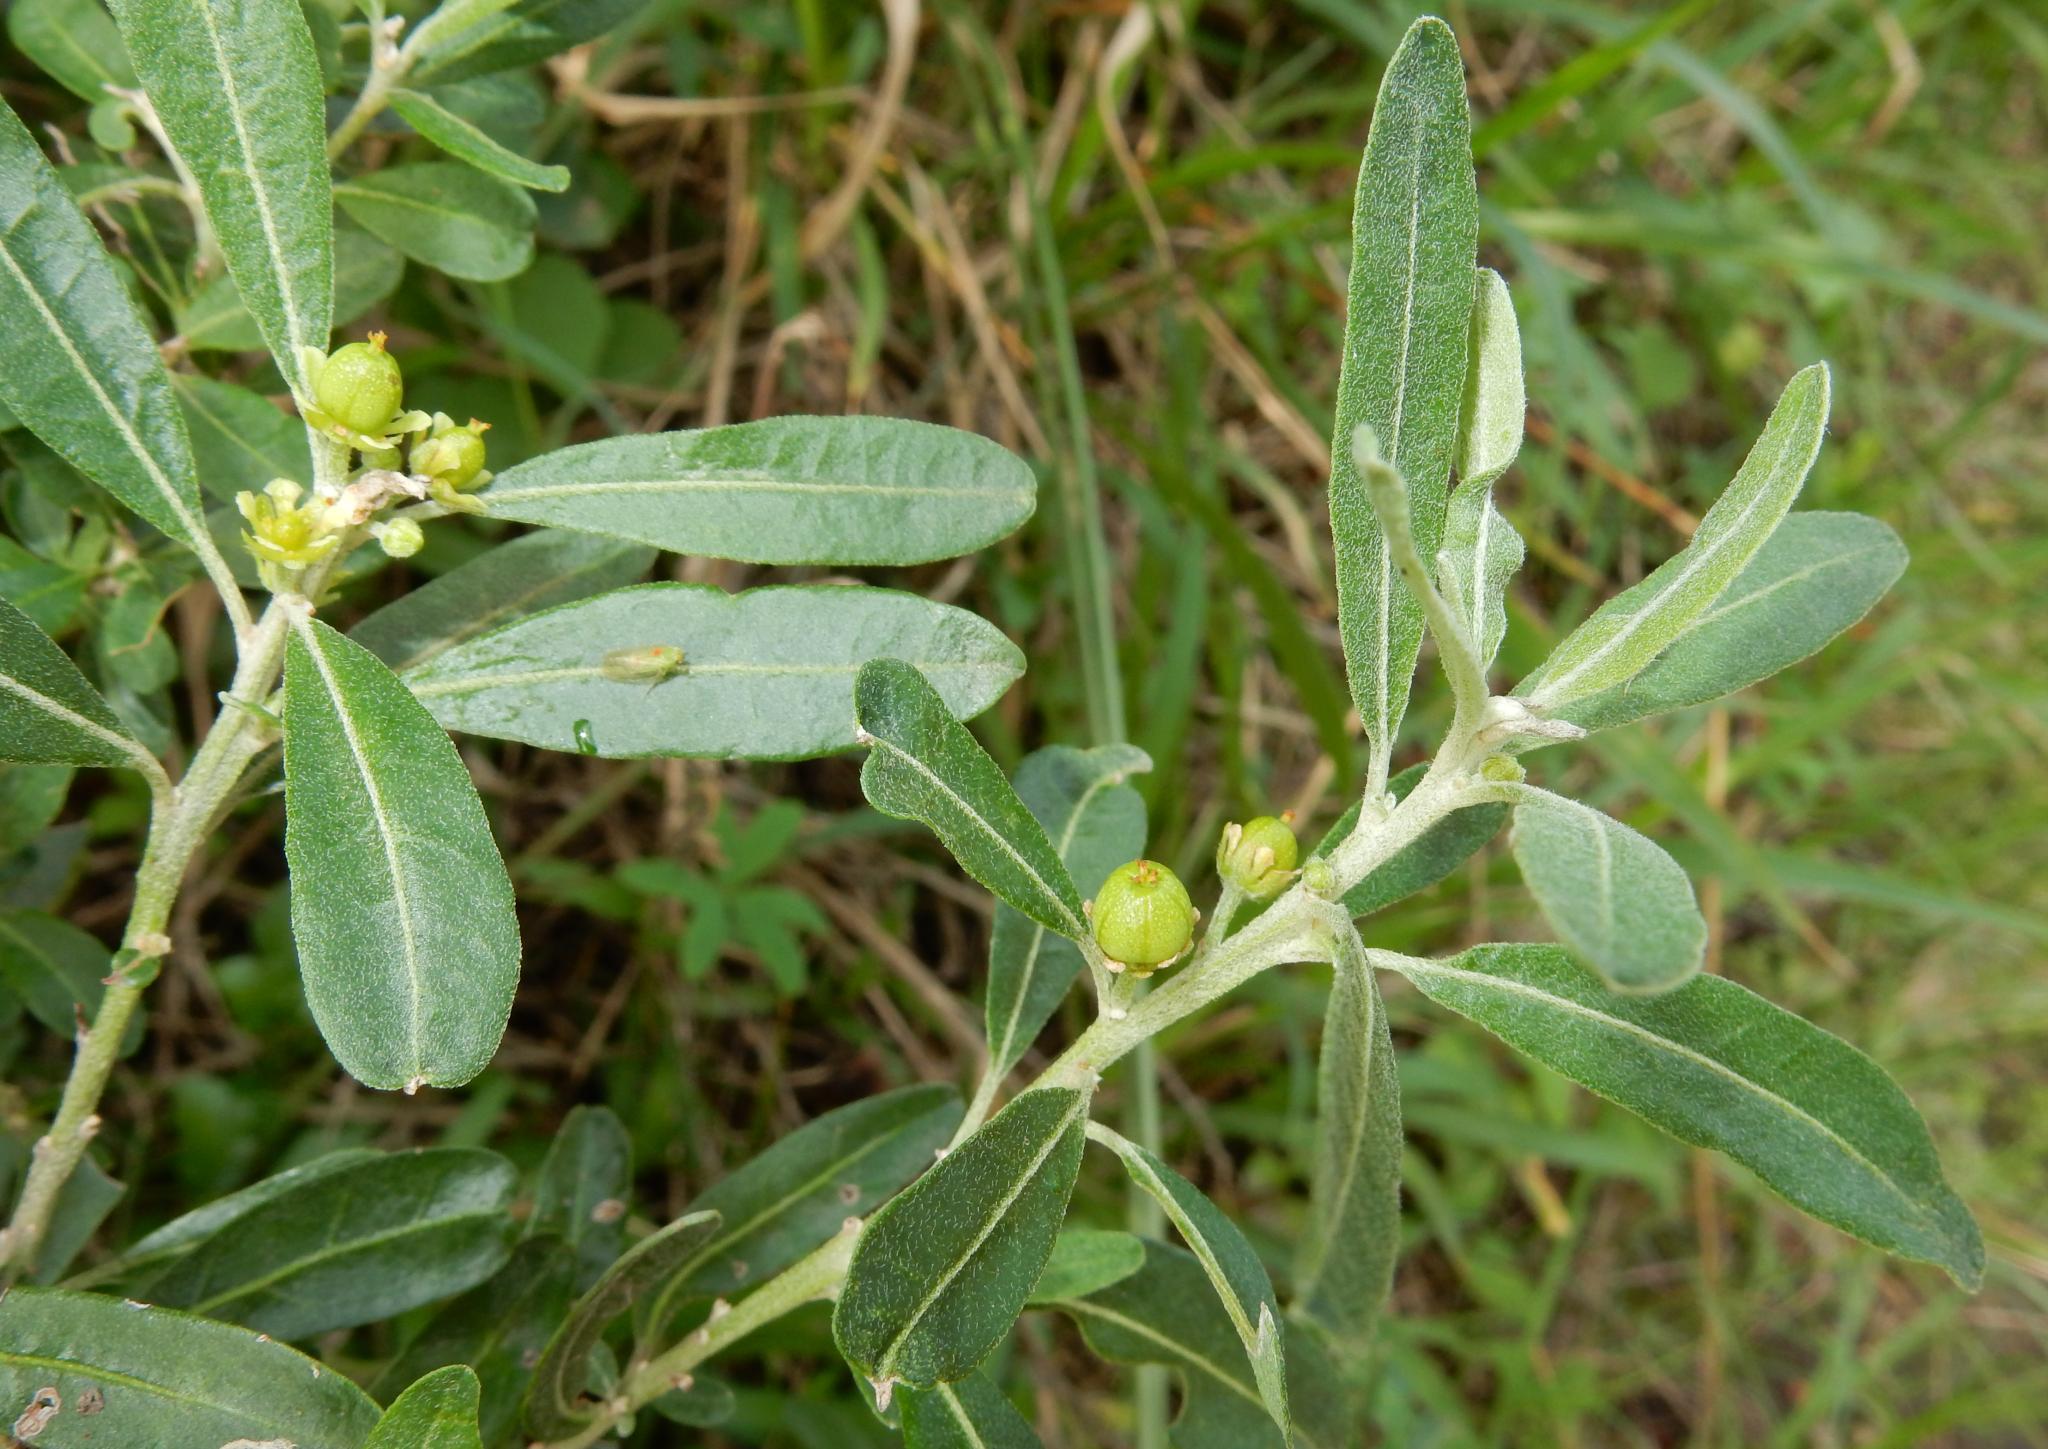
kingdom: Plantae
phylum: Tracheophyta
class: Magnoliopsida
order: Malpighiales
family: Peraceae
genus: Clutia
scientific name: Clutia daphnoides
